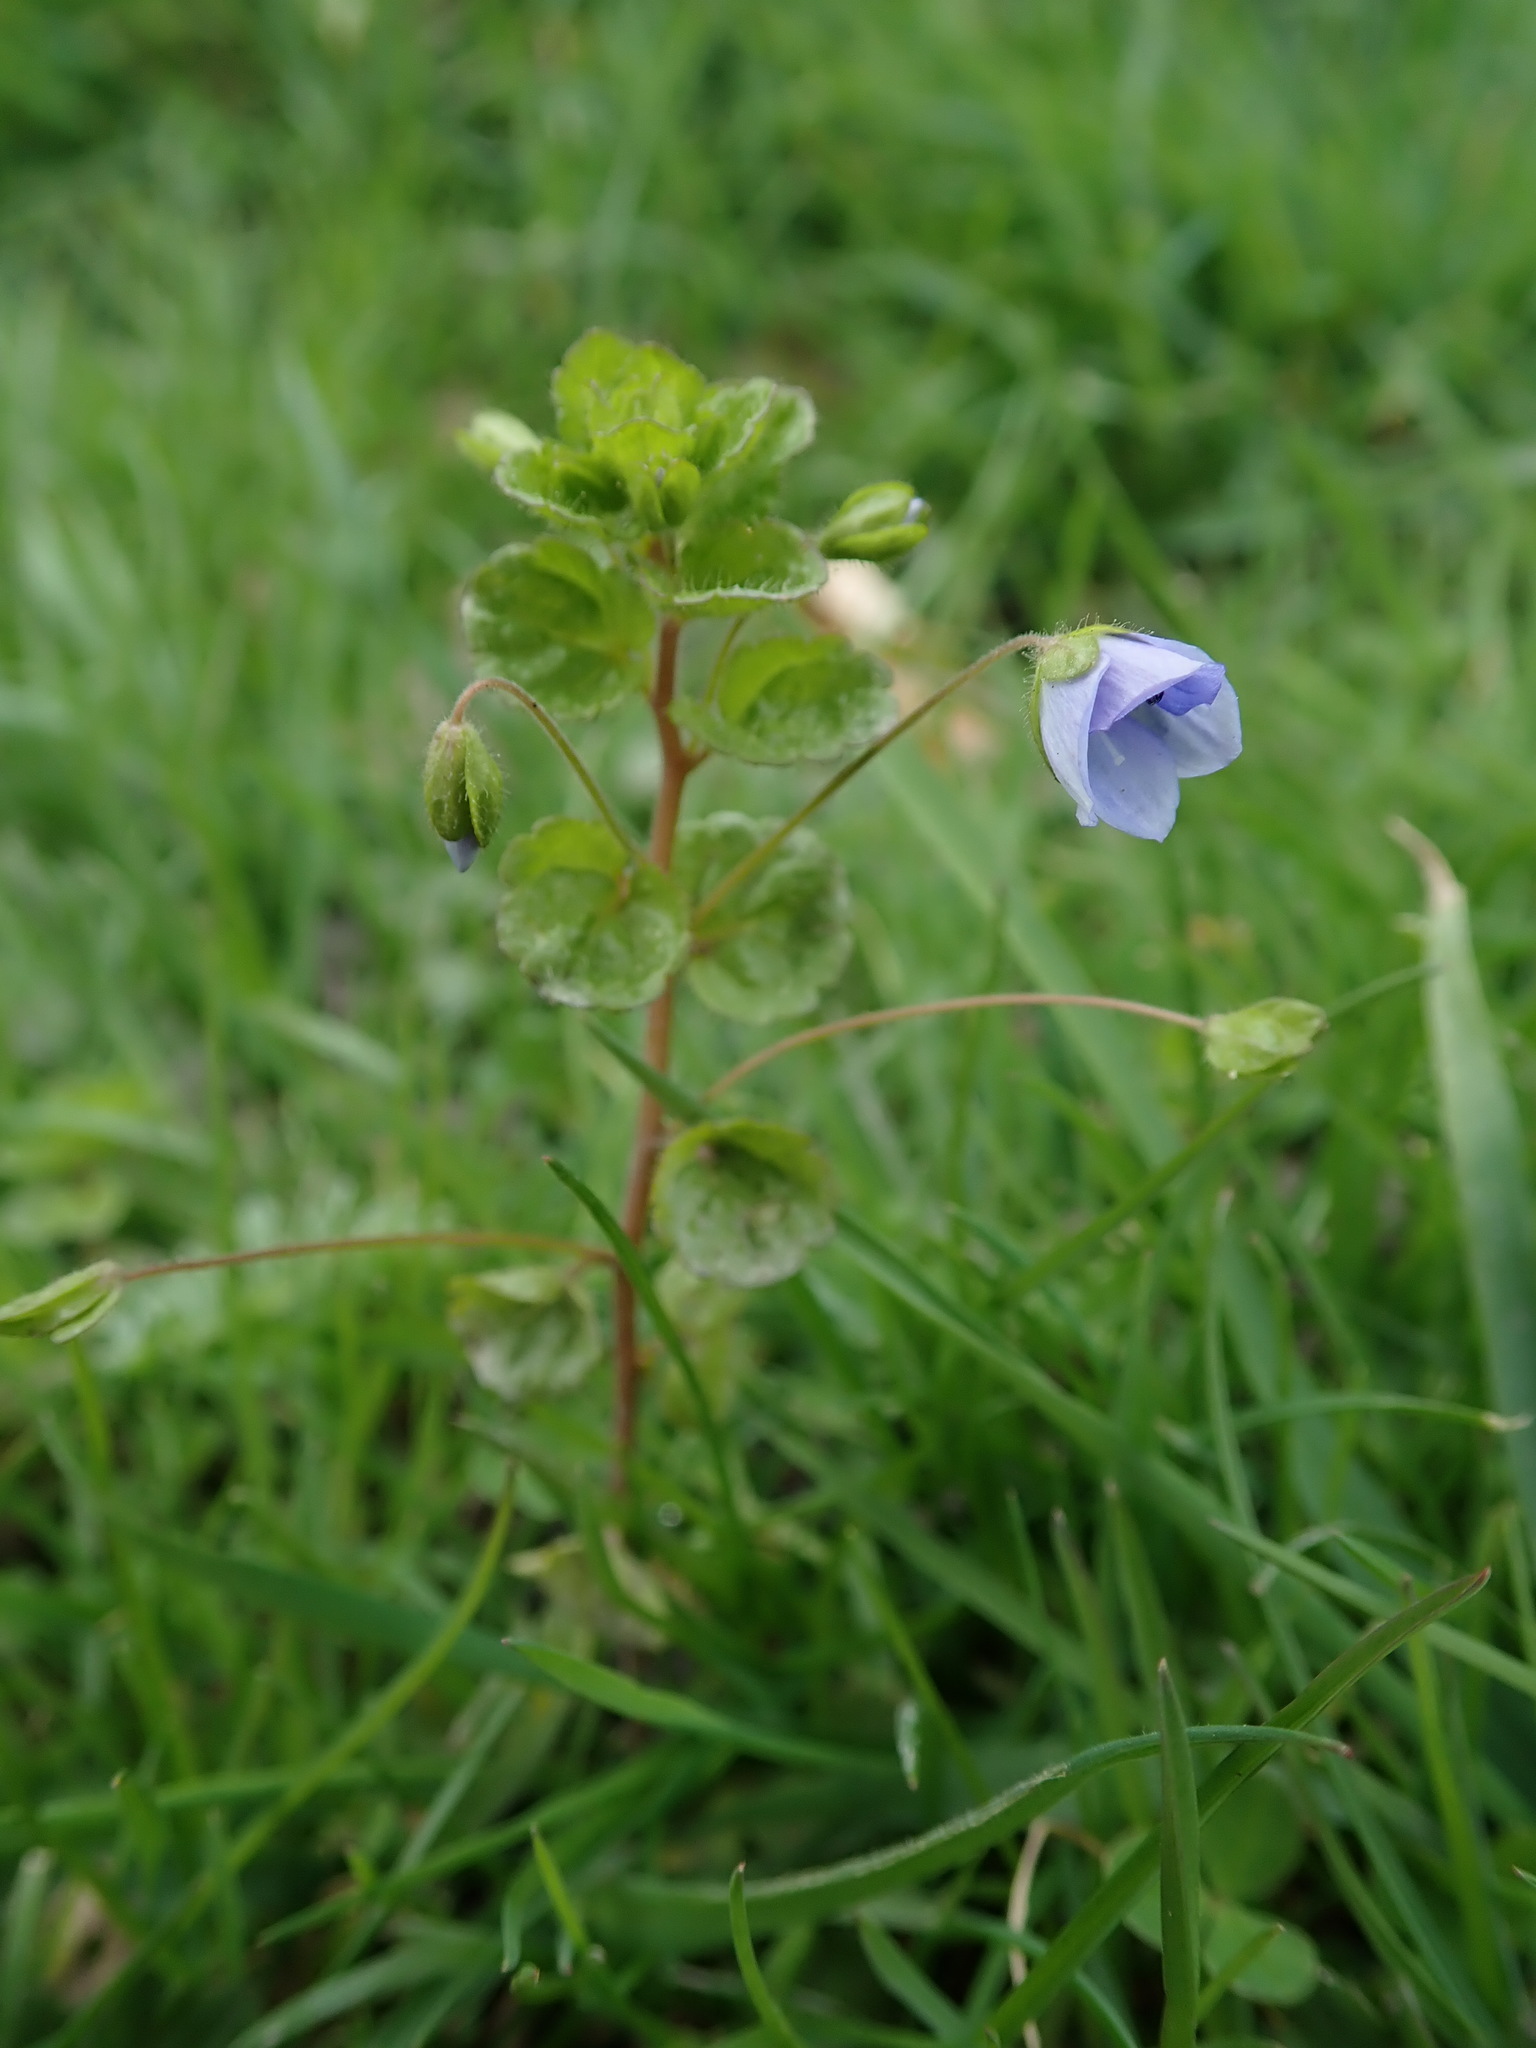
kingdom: Plantae
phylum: Tracheophyta
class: Magnoliopsida
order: Lamiales
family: Plantaginaceae
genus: Veronica
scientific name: Veronica filiformis
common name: Slender speedwell
